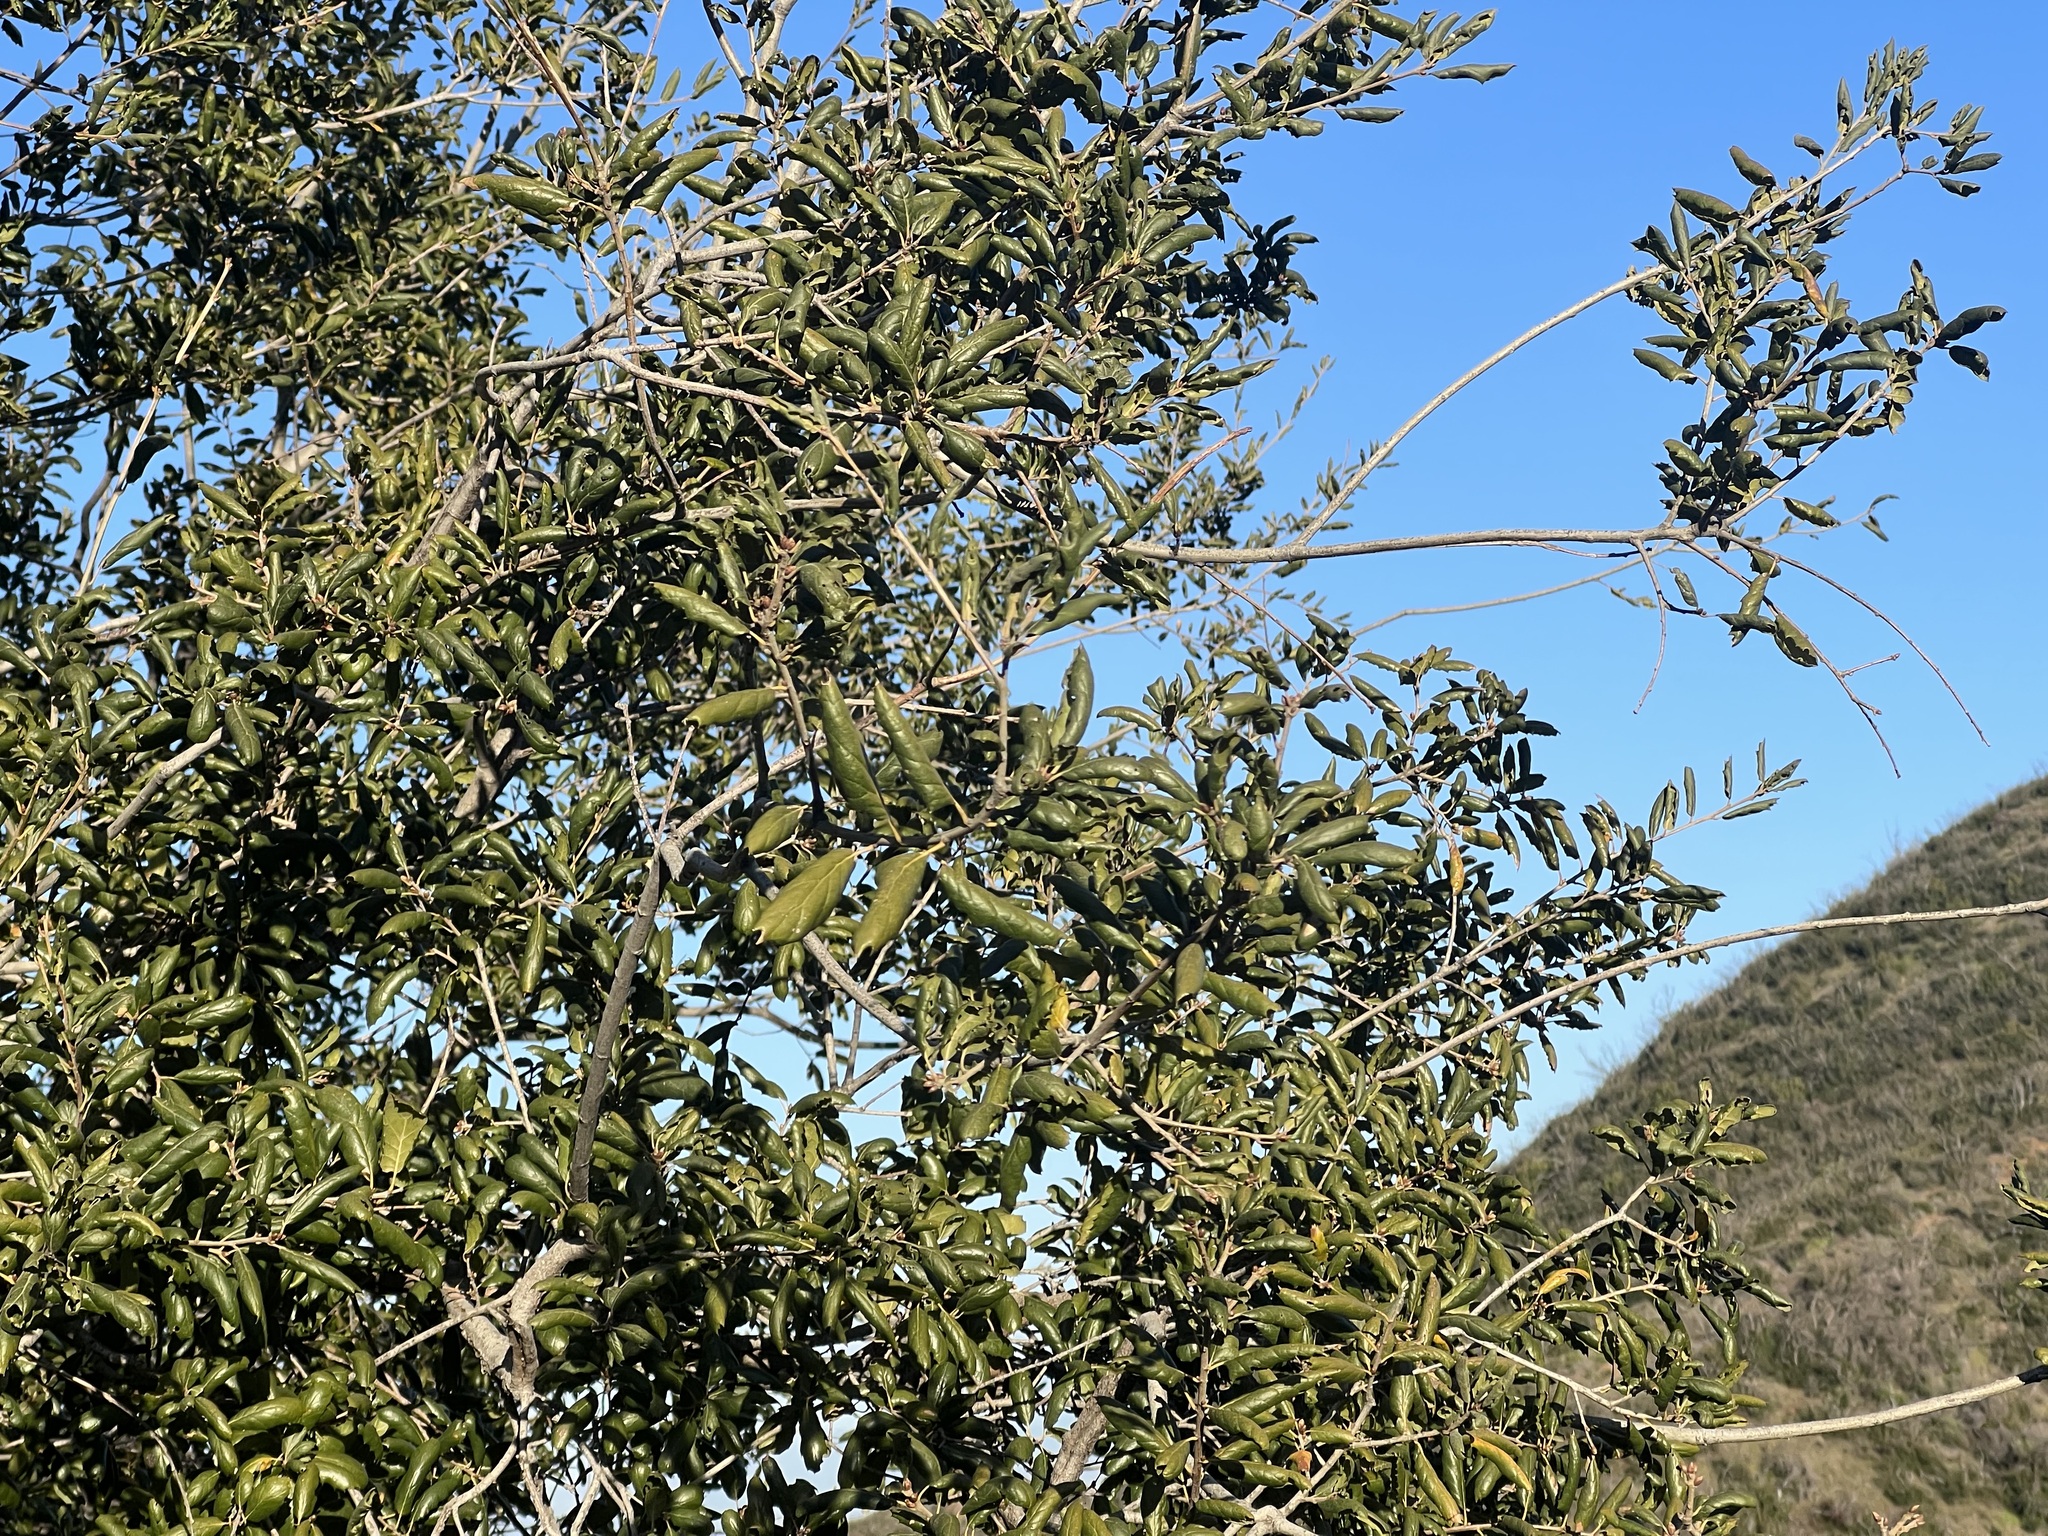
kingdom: Plantae
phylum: Tracheophyta
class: Magnoliopsida
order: Fagales
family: Fagaceae
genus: Quercus
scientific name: Quercus agrifolia
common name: California live oak
